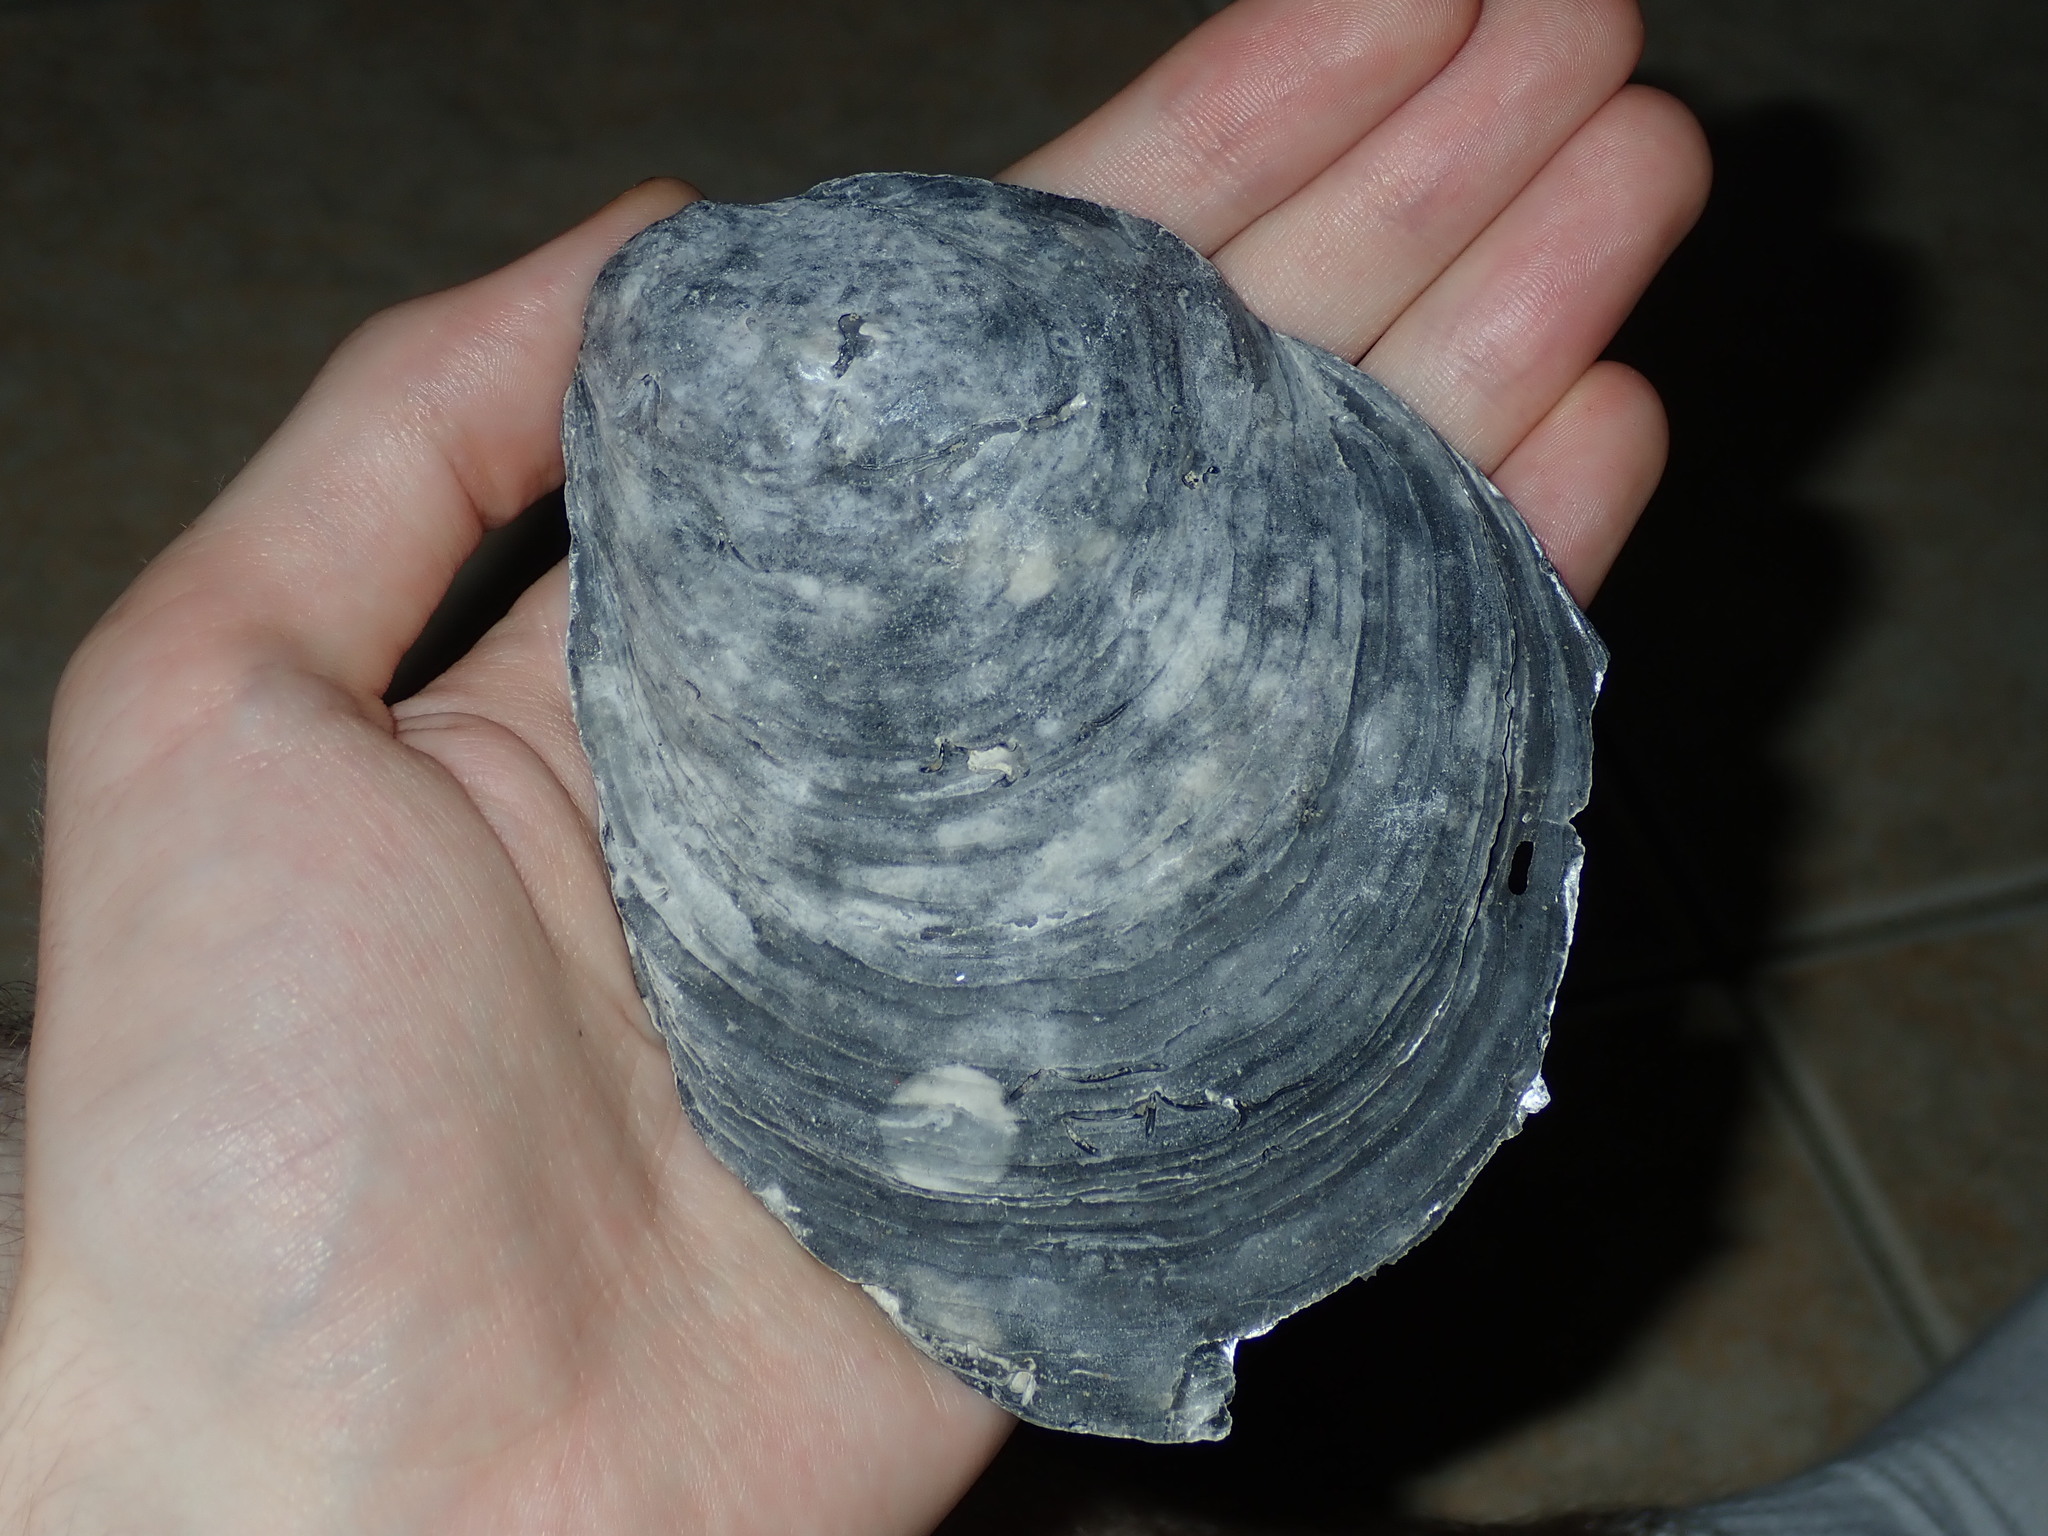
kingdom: Animalia
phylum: Mollusca
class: Bivalvia
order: Ostreida
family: Ostreidae
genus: Ostrea
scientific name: Ostrea angasi
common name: Angasi oyster
